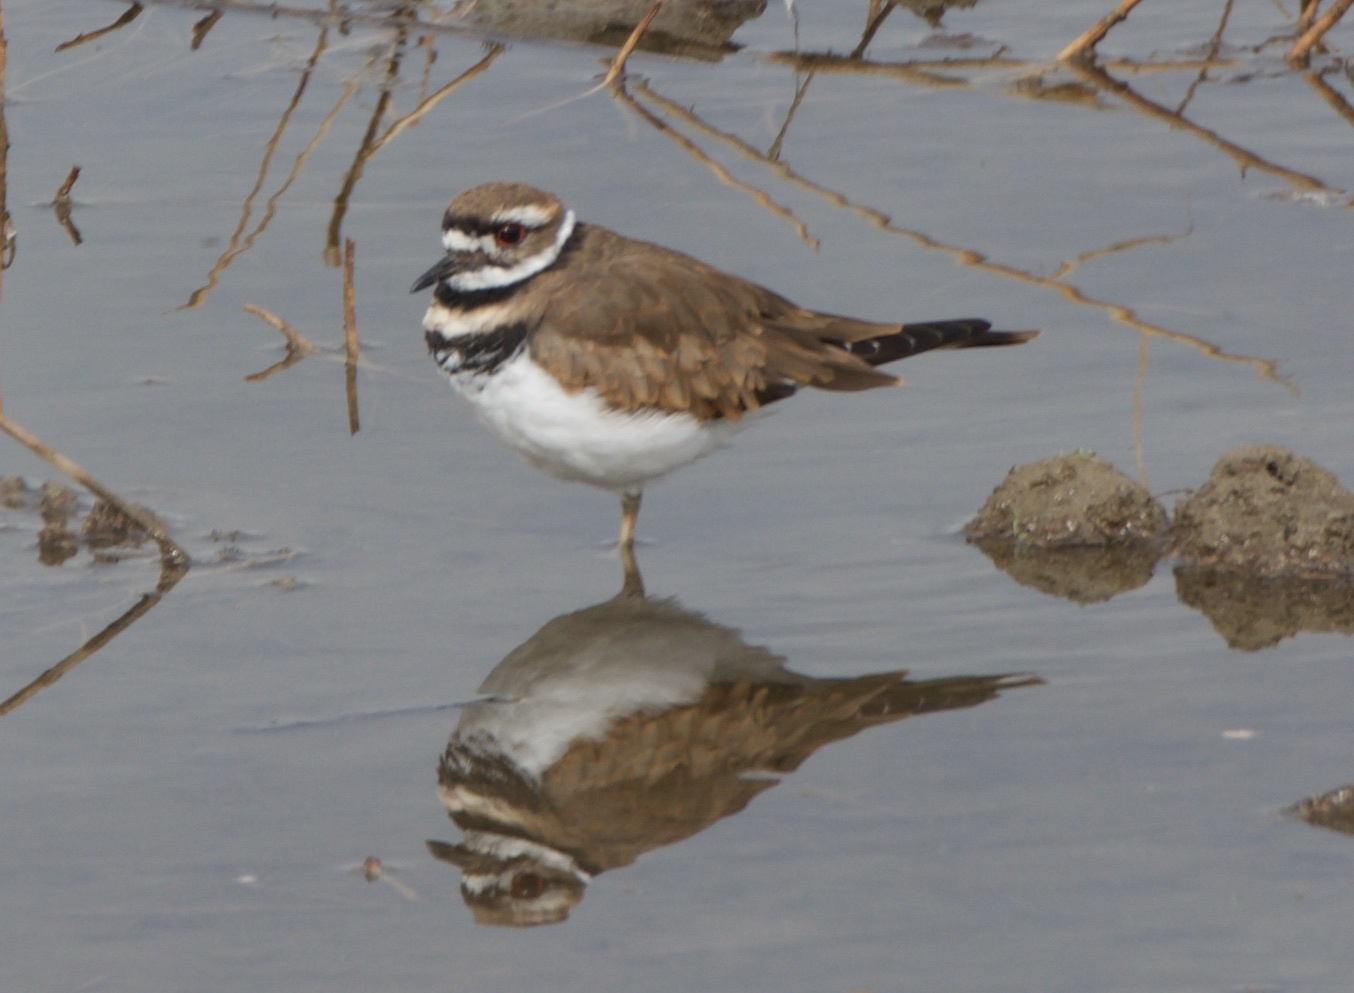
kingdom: Animalia
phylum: Chordata
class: Aves
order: Charadriiformes
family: Charadriidae
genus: Charadrius
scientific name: Charadrius vociferus
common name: Killdeer
